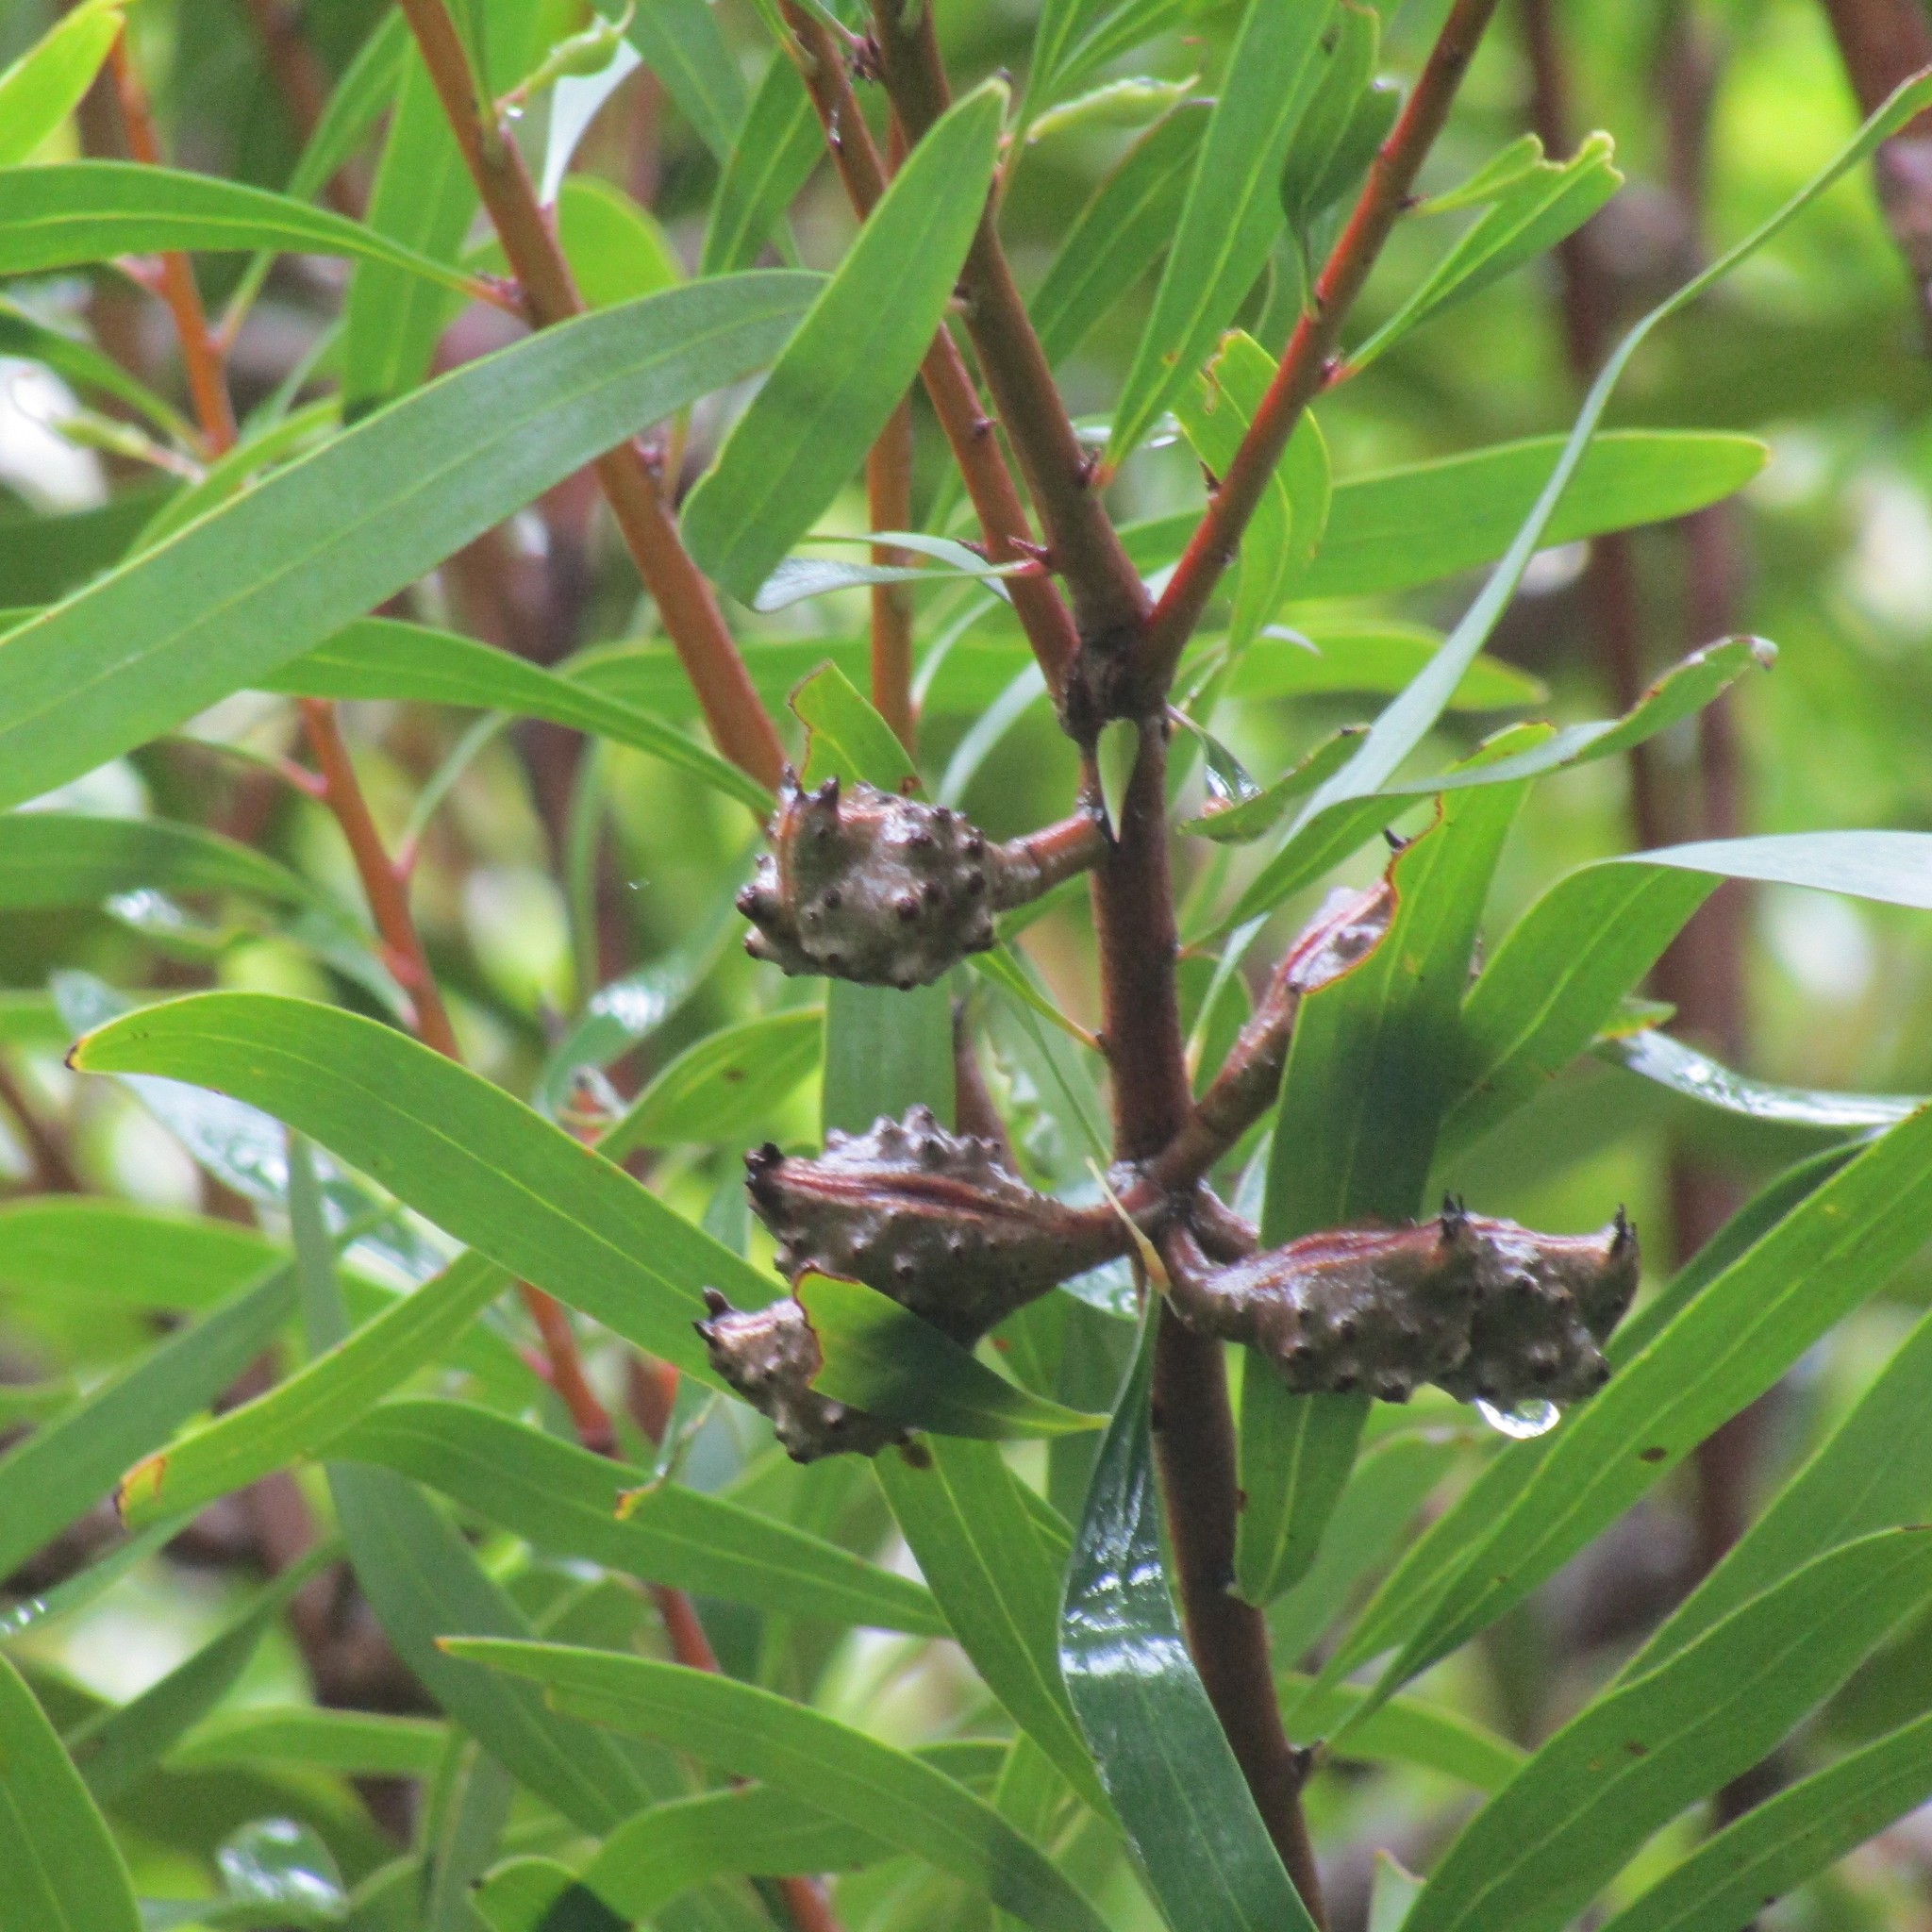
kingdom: Plantae
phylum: Tracheophyta
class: Magnoliopsida
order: Proteales
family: Proteaceae
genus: Hakea
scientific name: Hakea salicifolia
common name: Willow hakea
